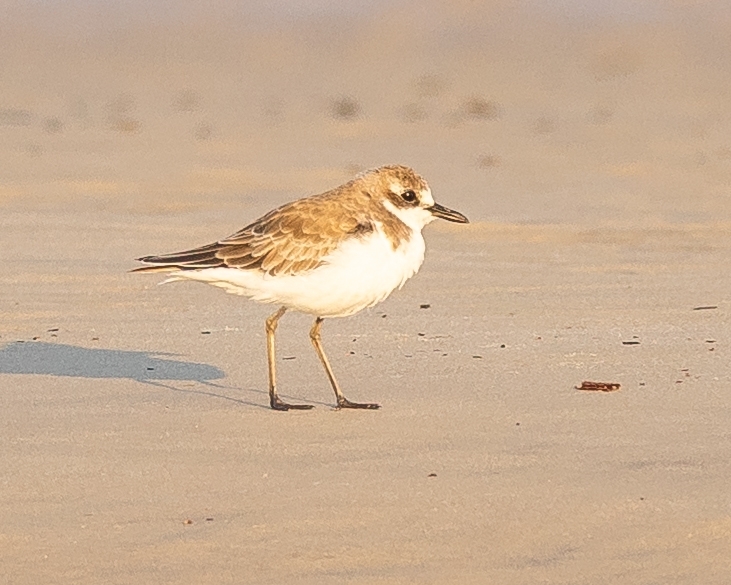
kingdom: Animalia
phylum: Chordata
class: Aves
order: Charadriiformes
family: Charadriidae
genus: Charadrius
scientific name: Charadrius leschenaultii
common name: Greater sand plover
